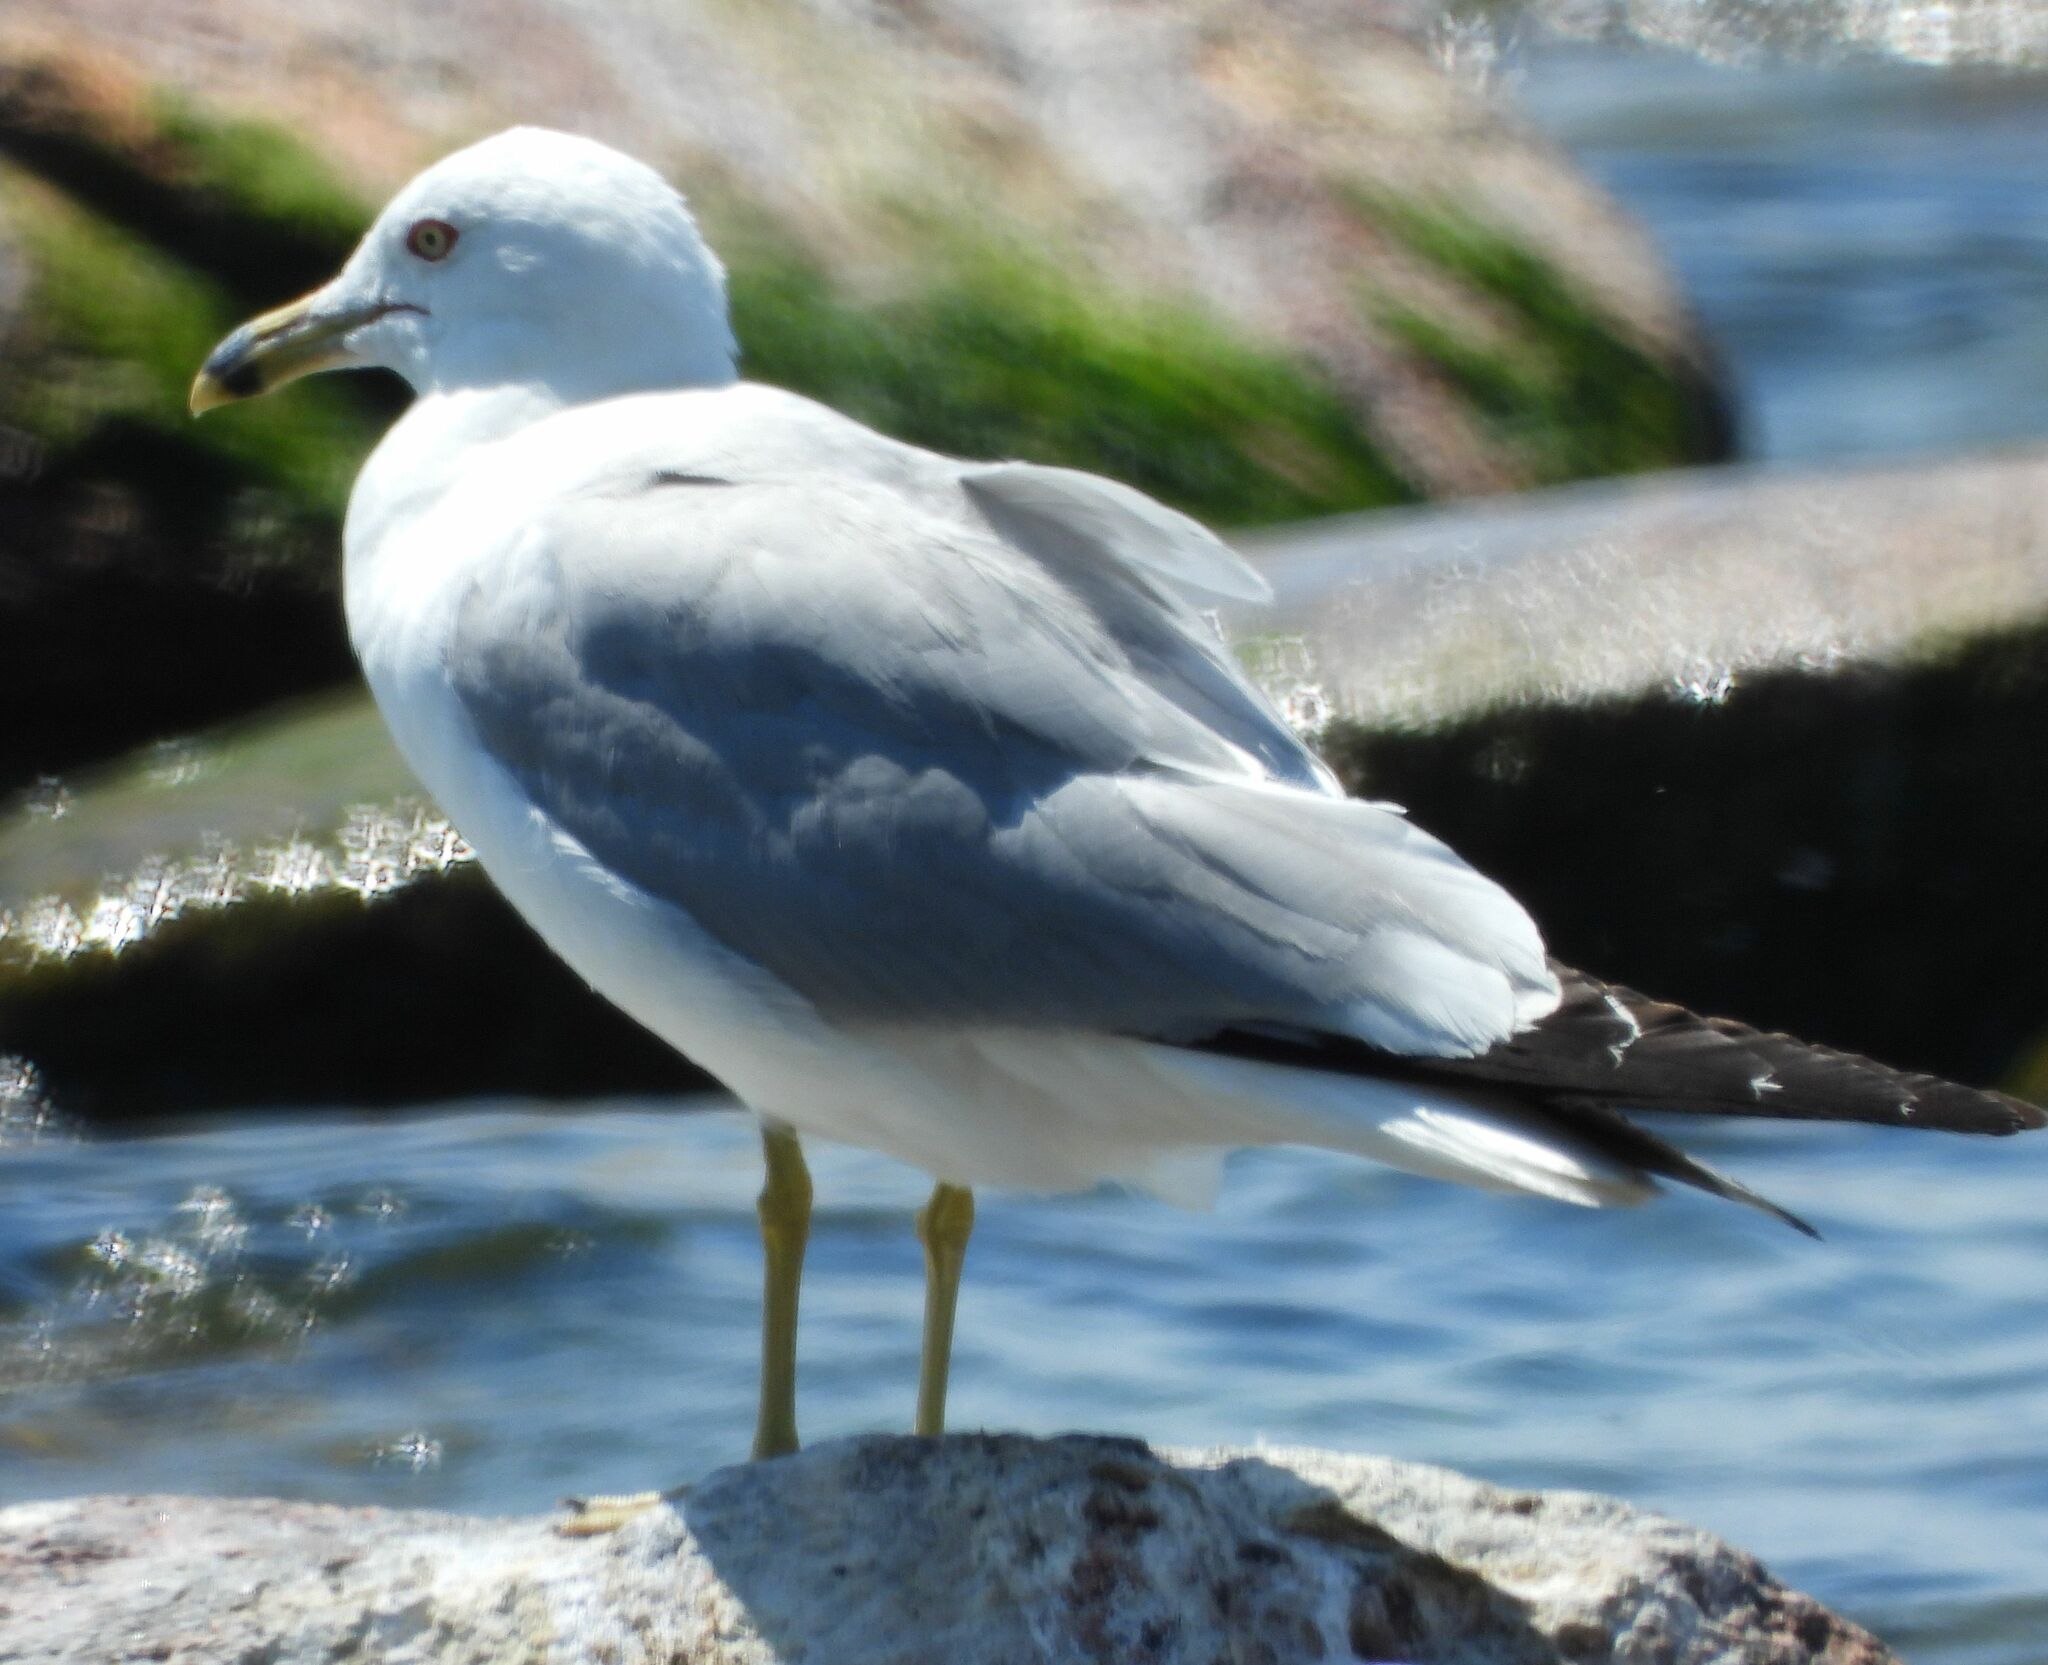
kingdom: Animalia
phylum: Chordata
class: Aves
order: Charadriiformes
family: Laridae
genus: Larus
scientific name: Larus delawarensis
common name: Ring-billed gull
